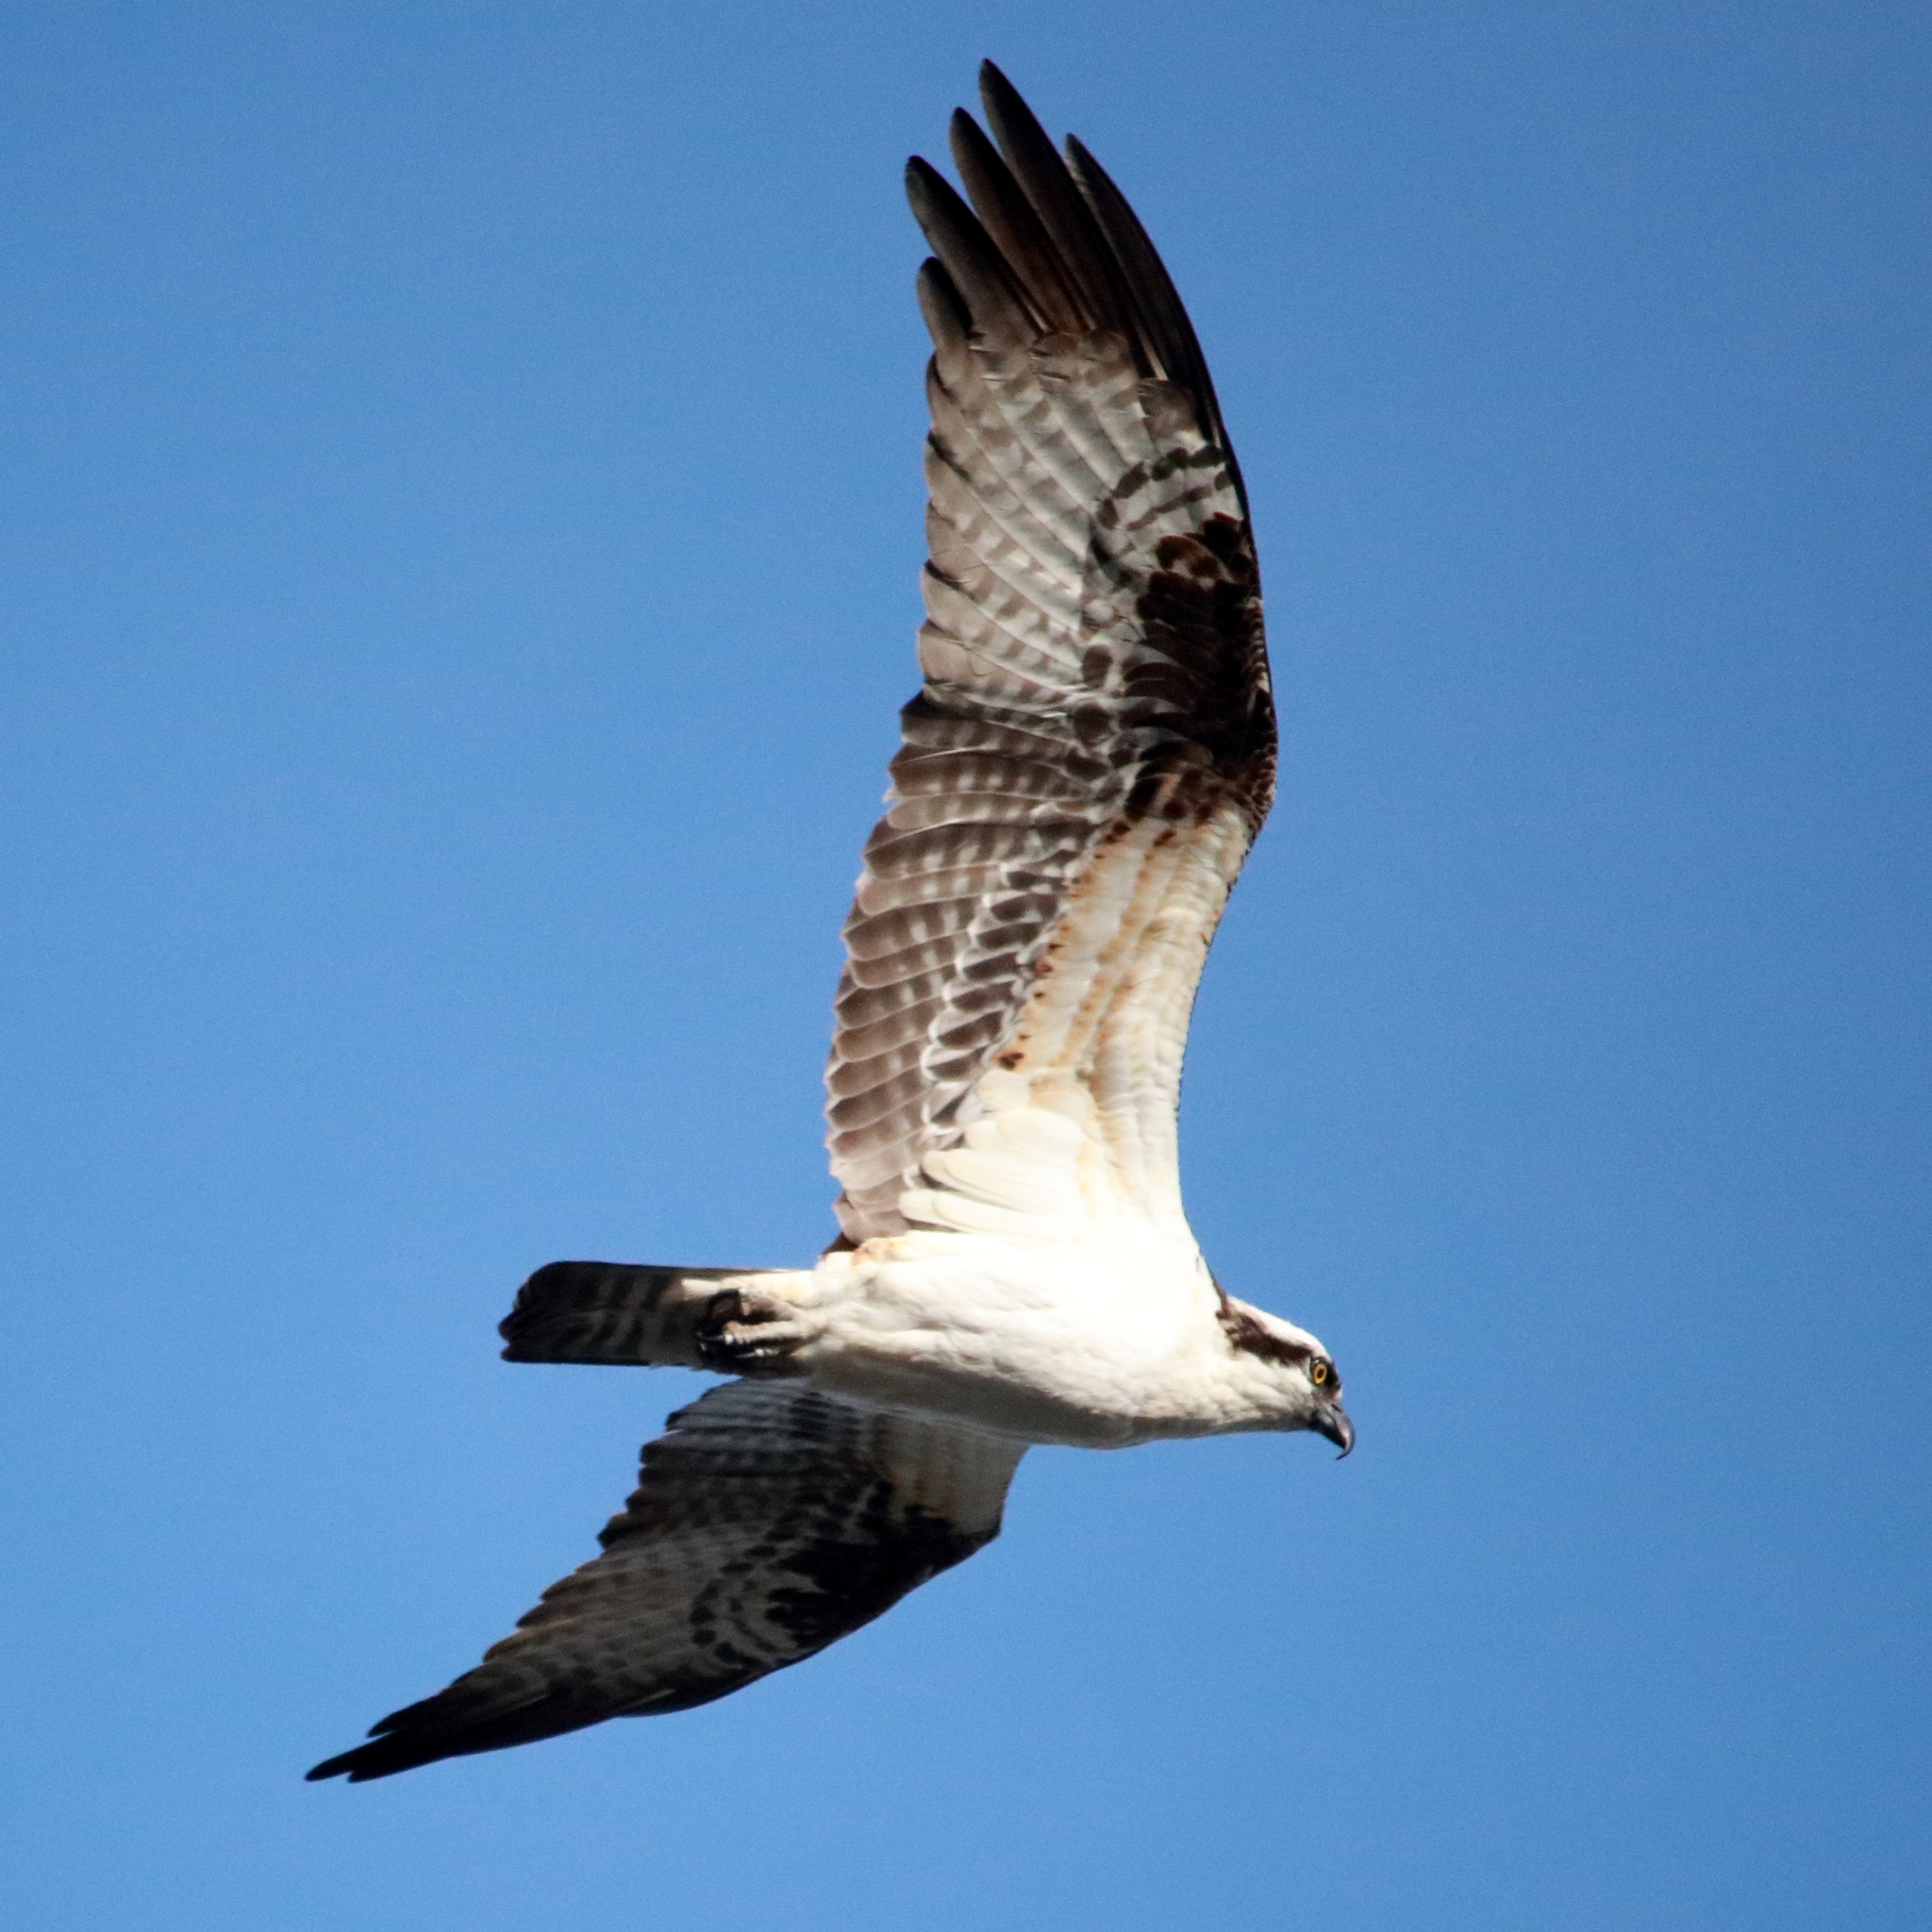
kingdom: Animalia
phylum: Chordata
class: Aves
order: Accipitriformes
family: Pandionidae
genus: Pandion
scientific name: Pandion haliaetus
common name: Osprey
